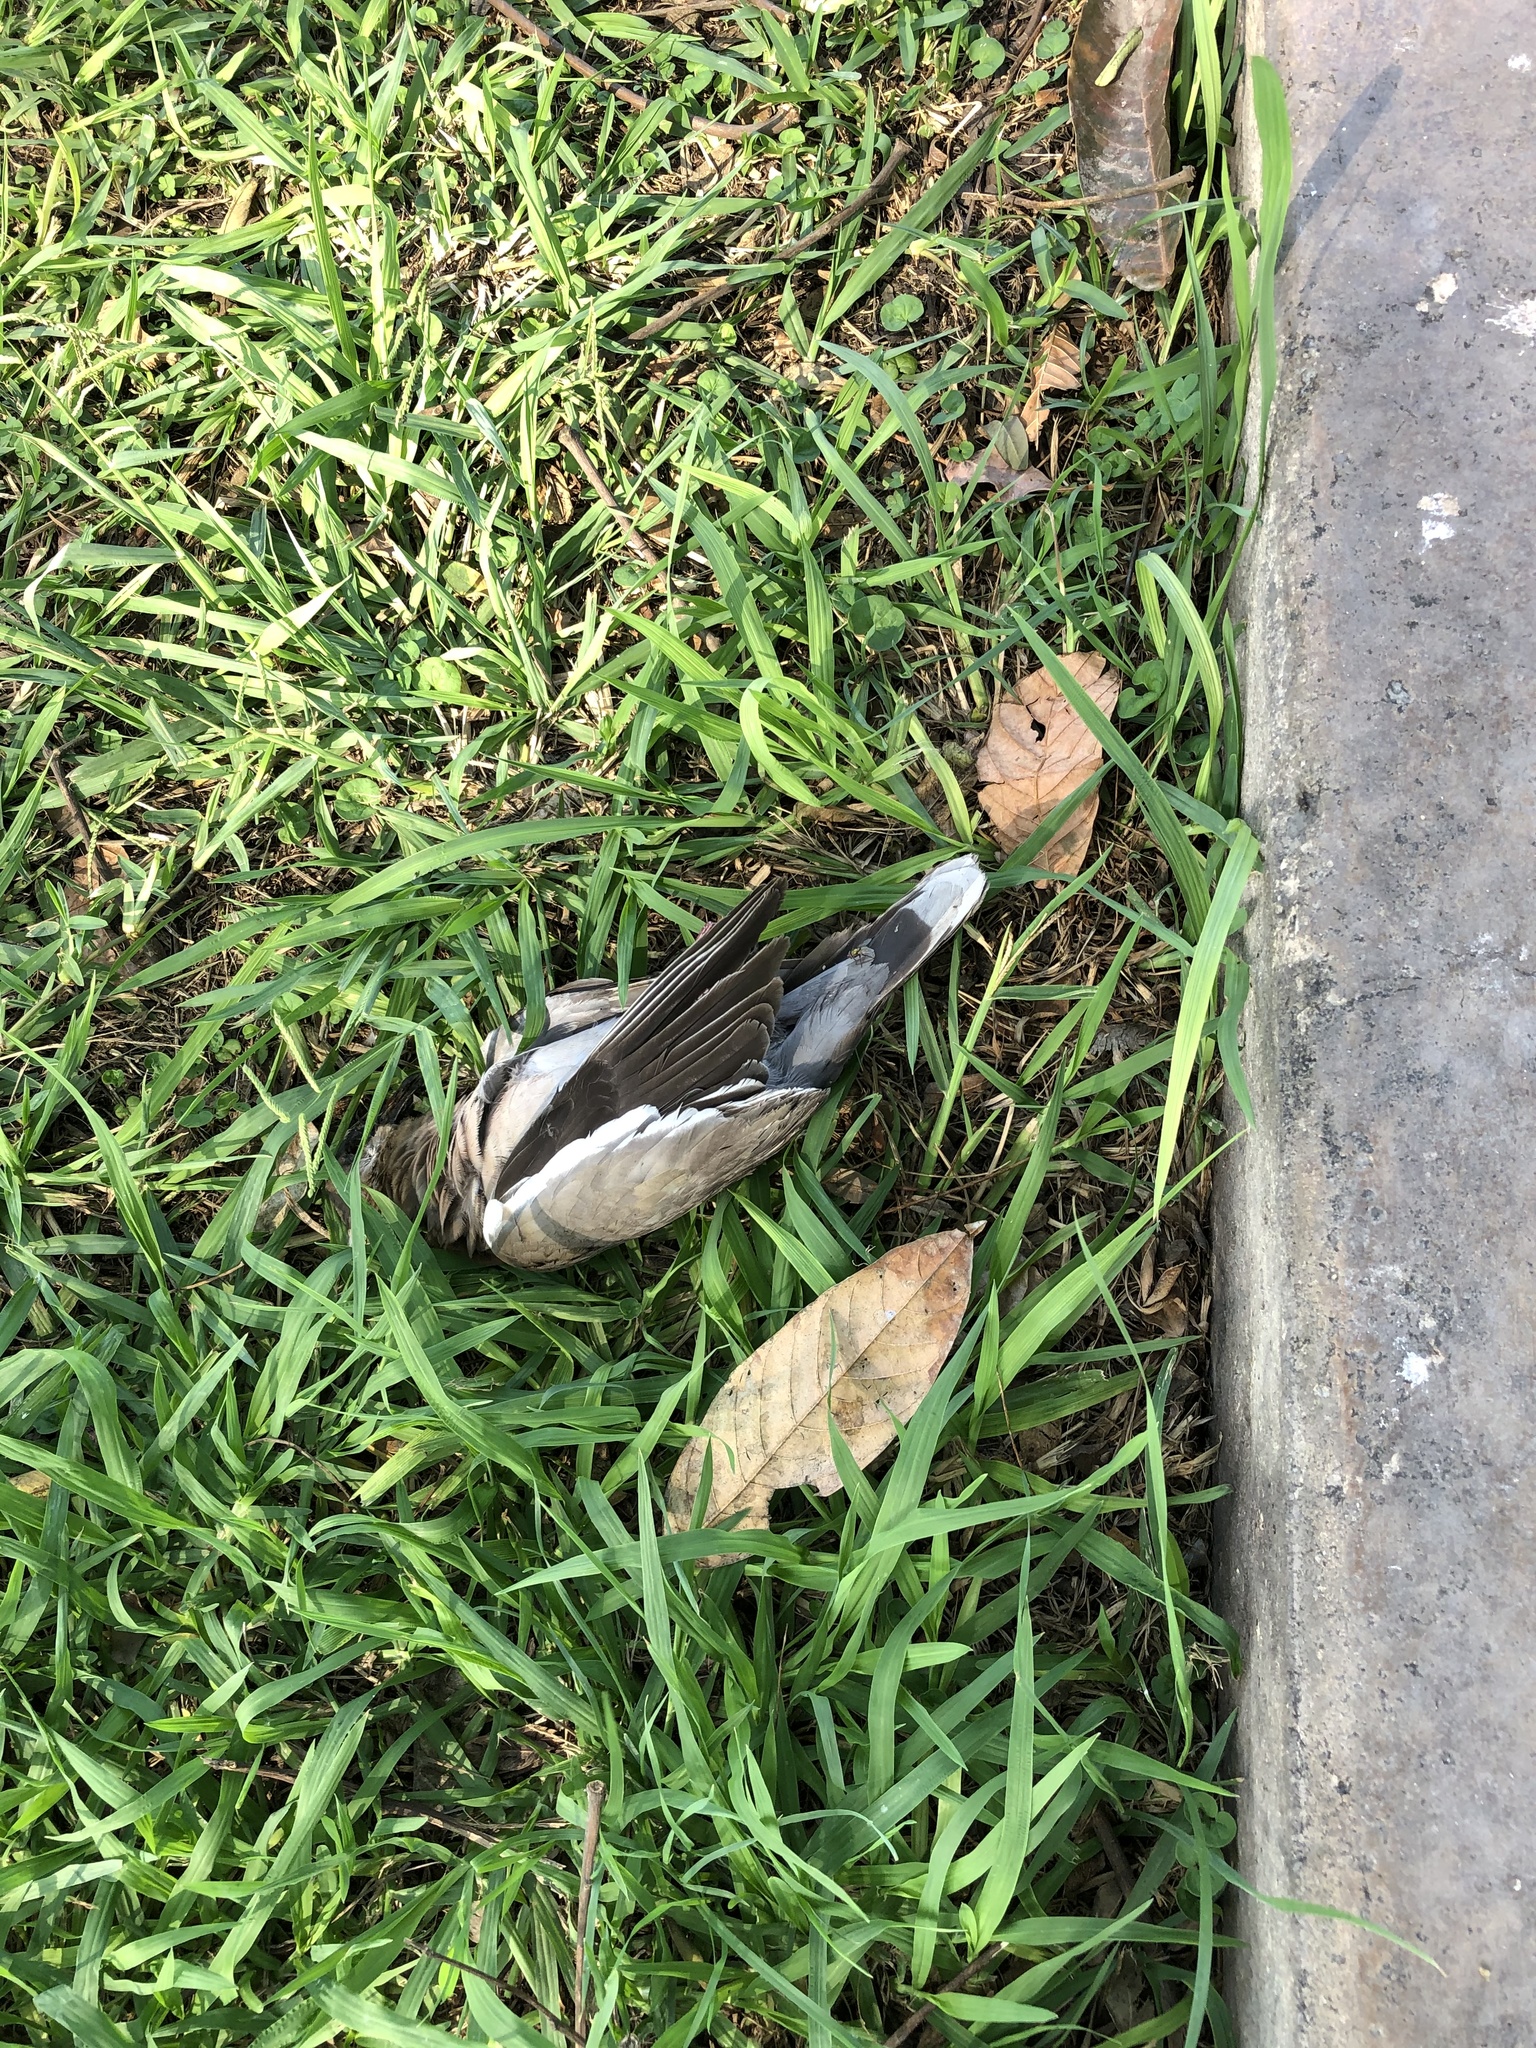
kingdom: Animalia
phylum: Chordata
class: Aves
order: Columbiformes
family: Columbidae
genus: Zenaida
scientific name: Zenaida meloda
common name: West peruvian dove
